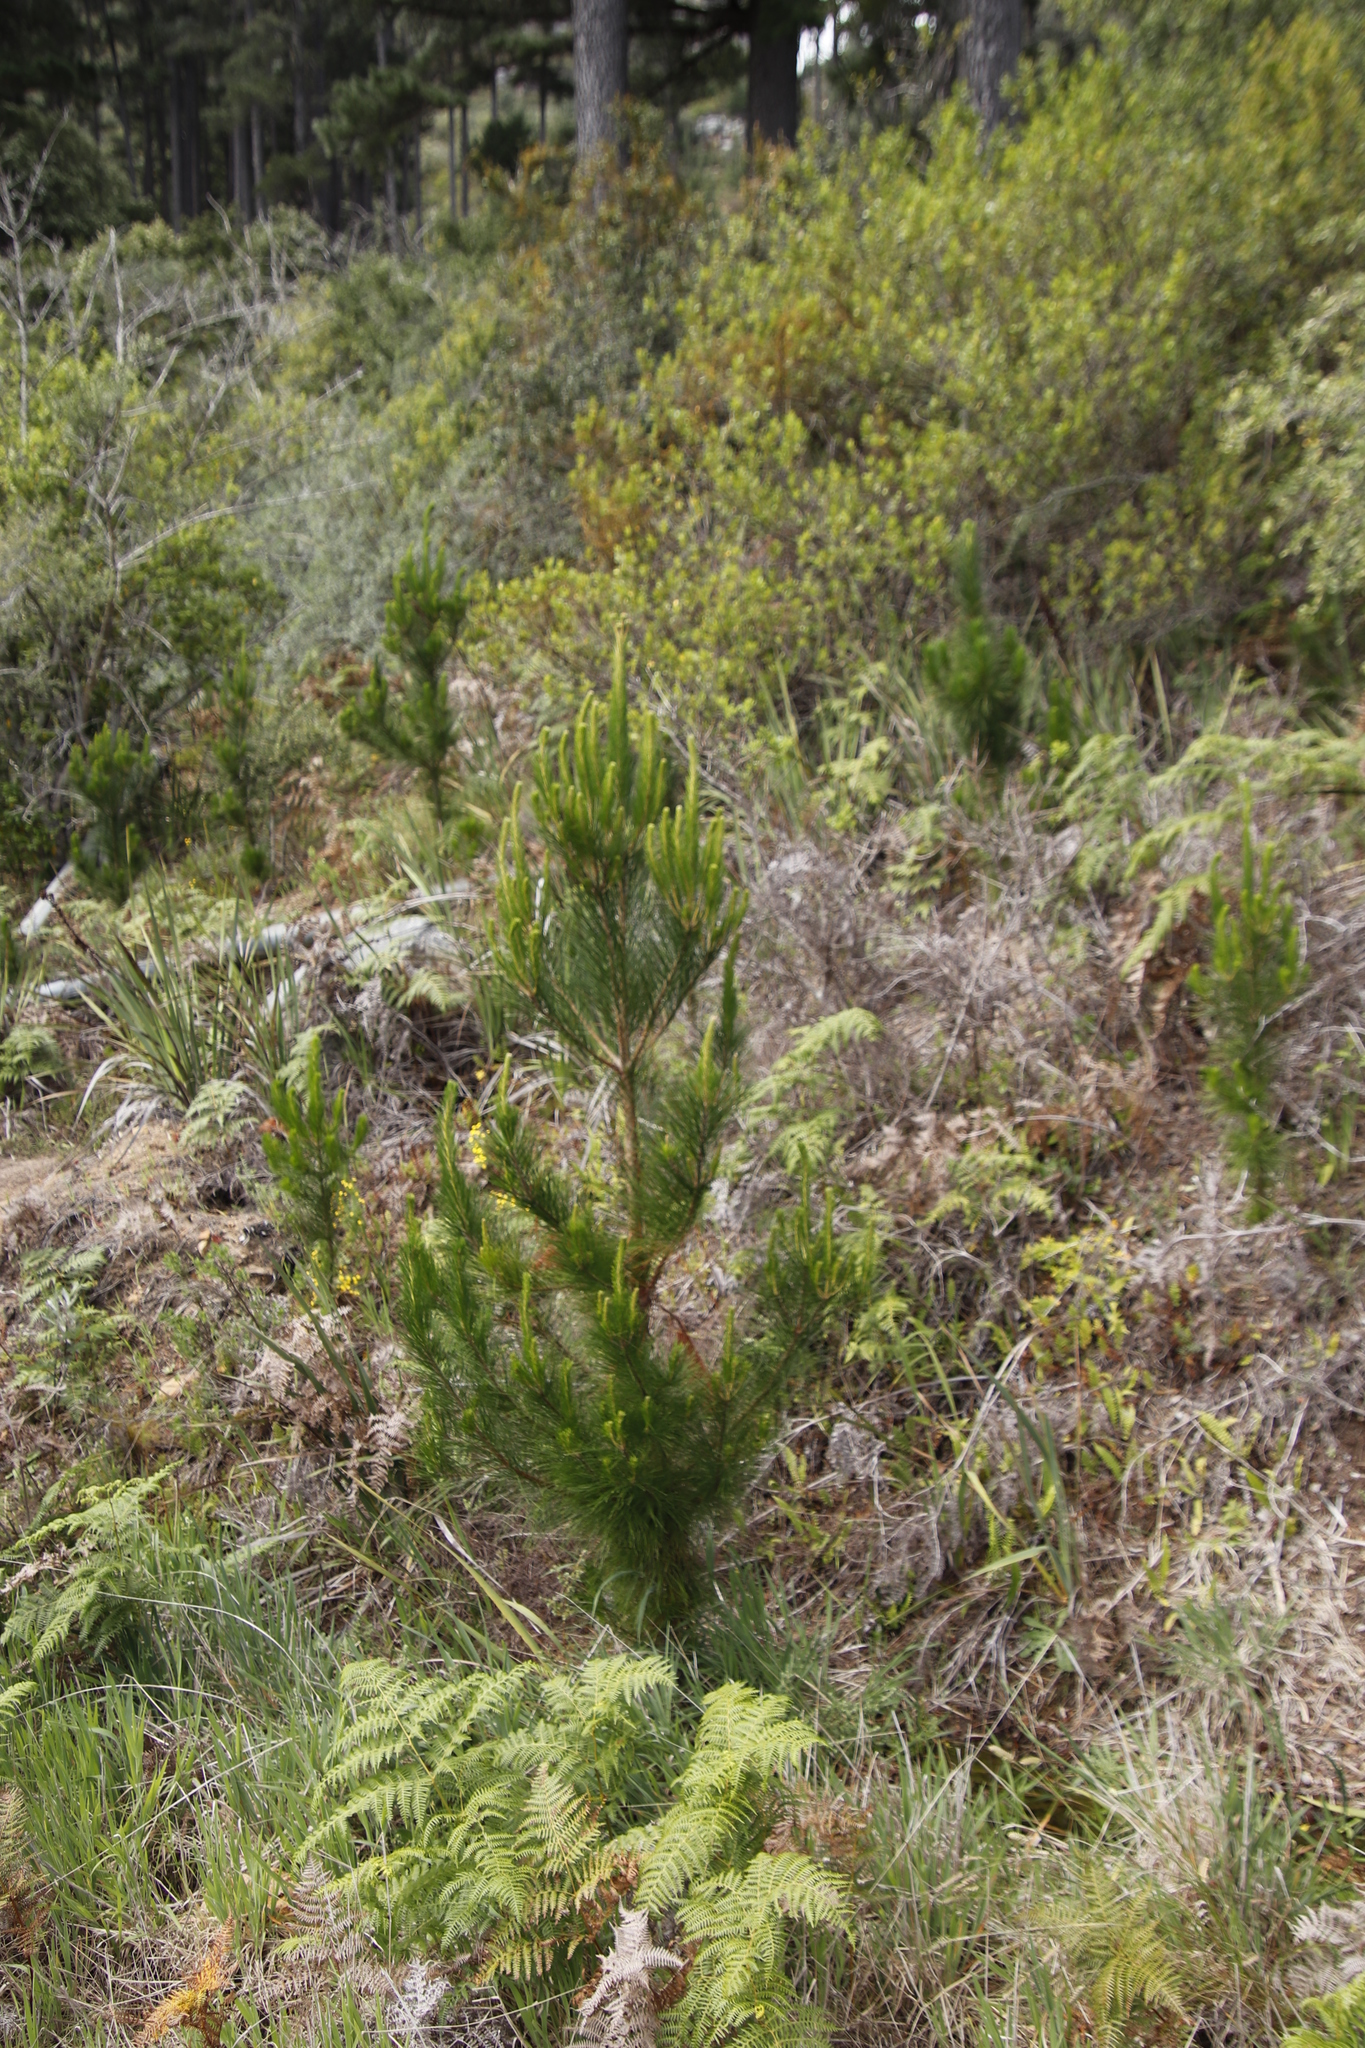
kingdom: Plantae
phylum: Tracheophyta
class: Pinopsida
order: Pinales
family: Pinaceae
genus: Pinus
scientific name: Pinus radiata
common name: Monterey pine
